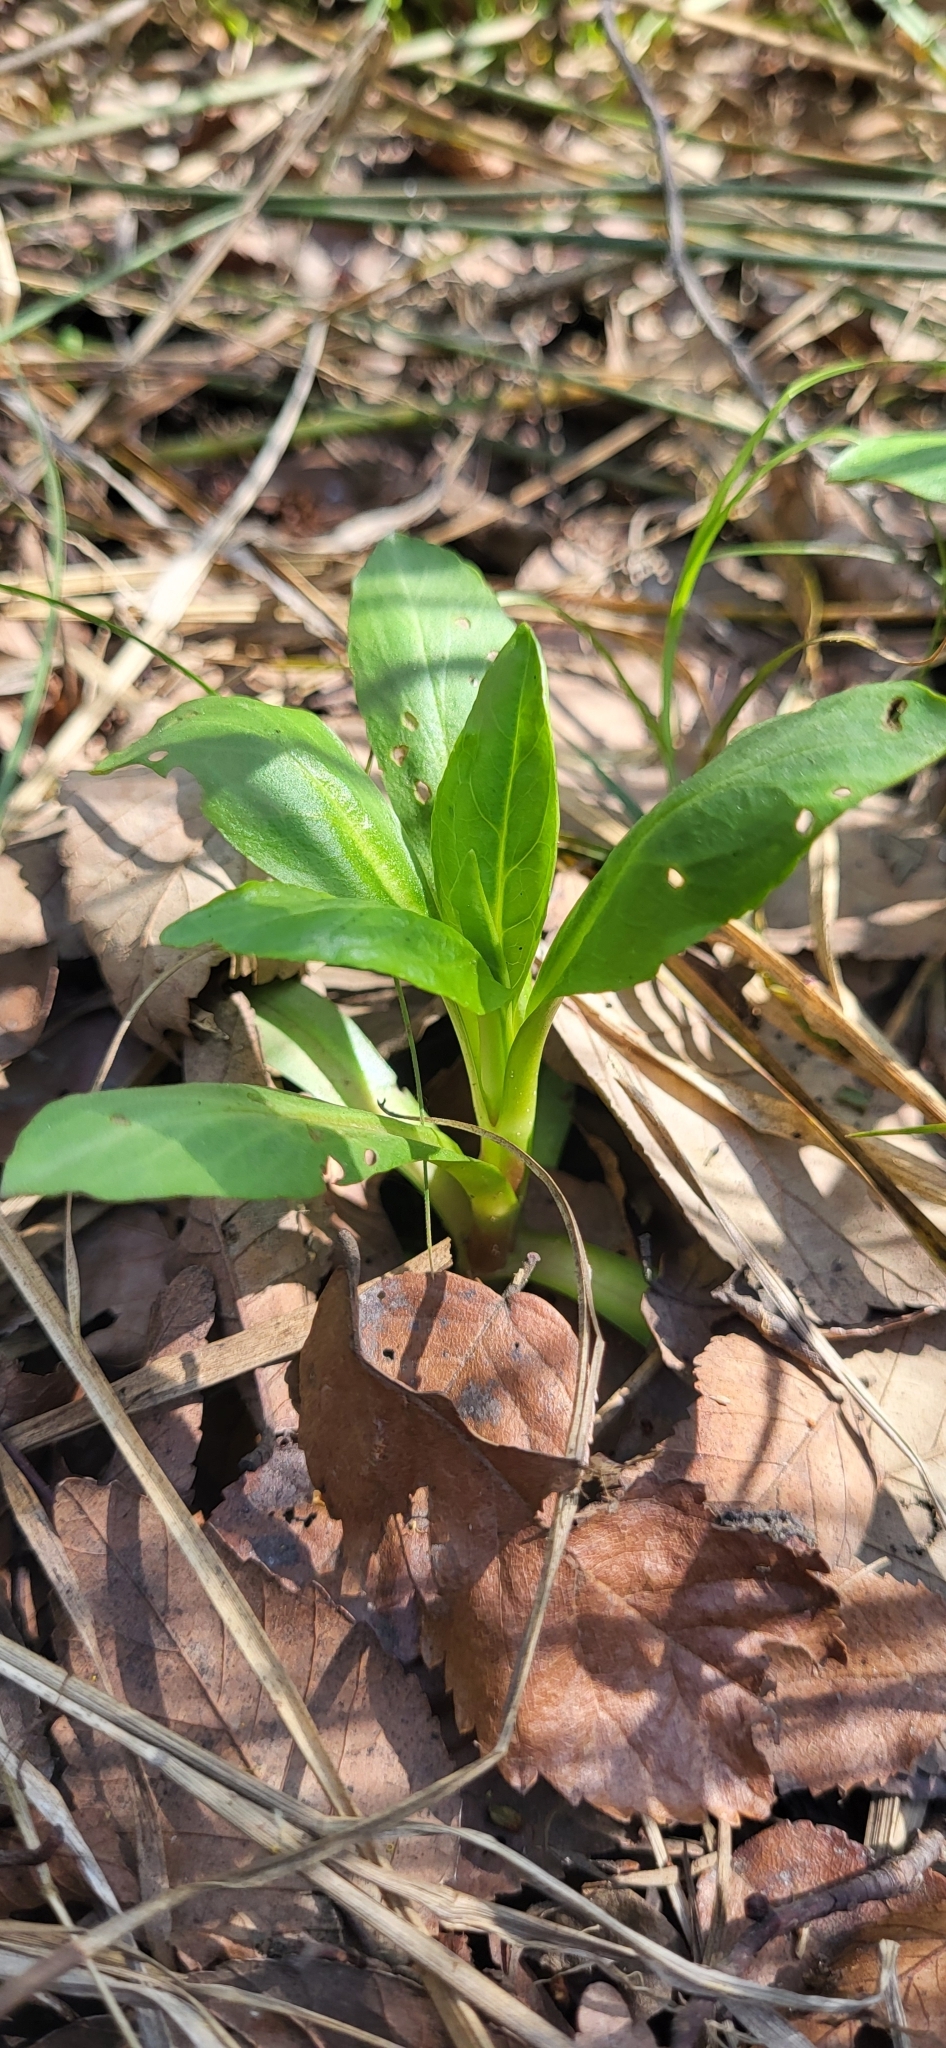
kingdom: Plantae
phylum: Tracheophyta
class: Magnoliopsida
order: Caryophyllales
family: Phytolaccaceae
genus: Phytolacca
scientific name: Phytolacca americana
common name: American pokeweed
